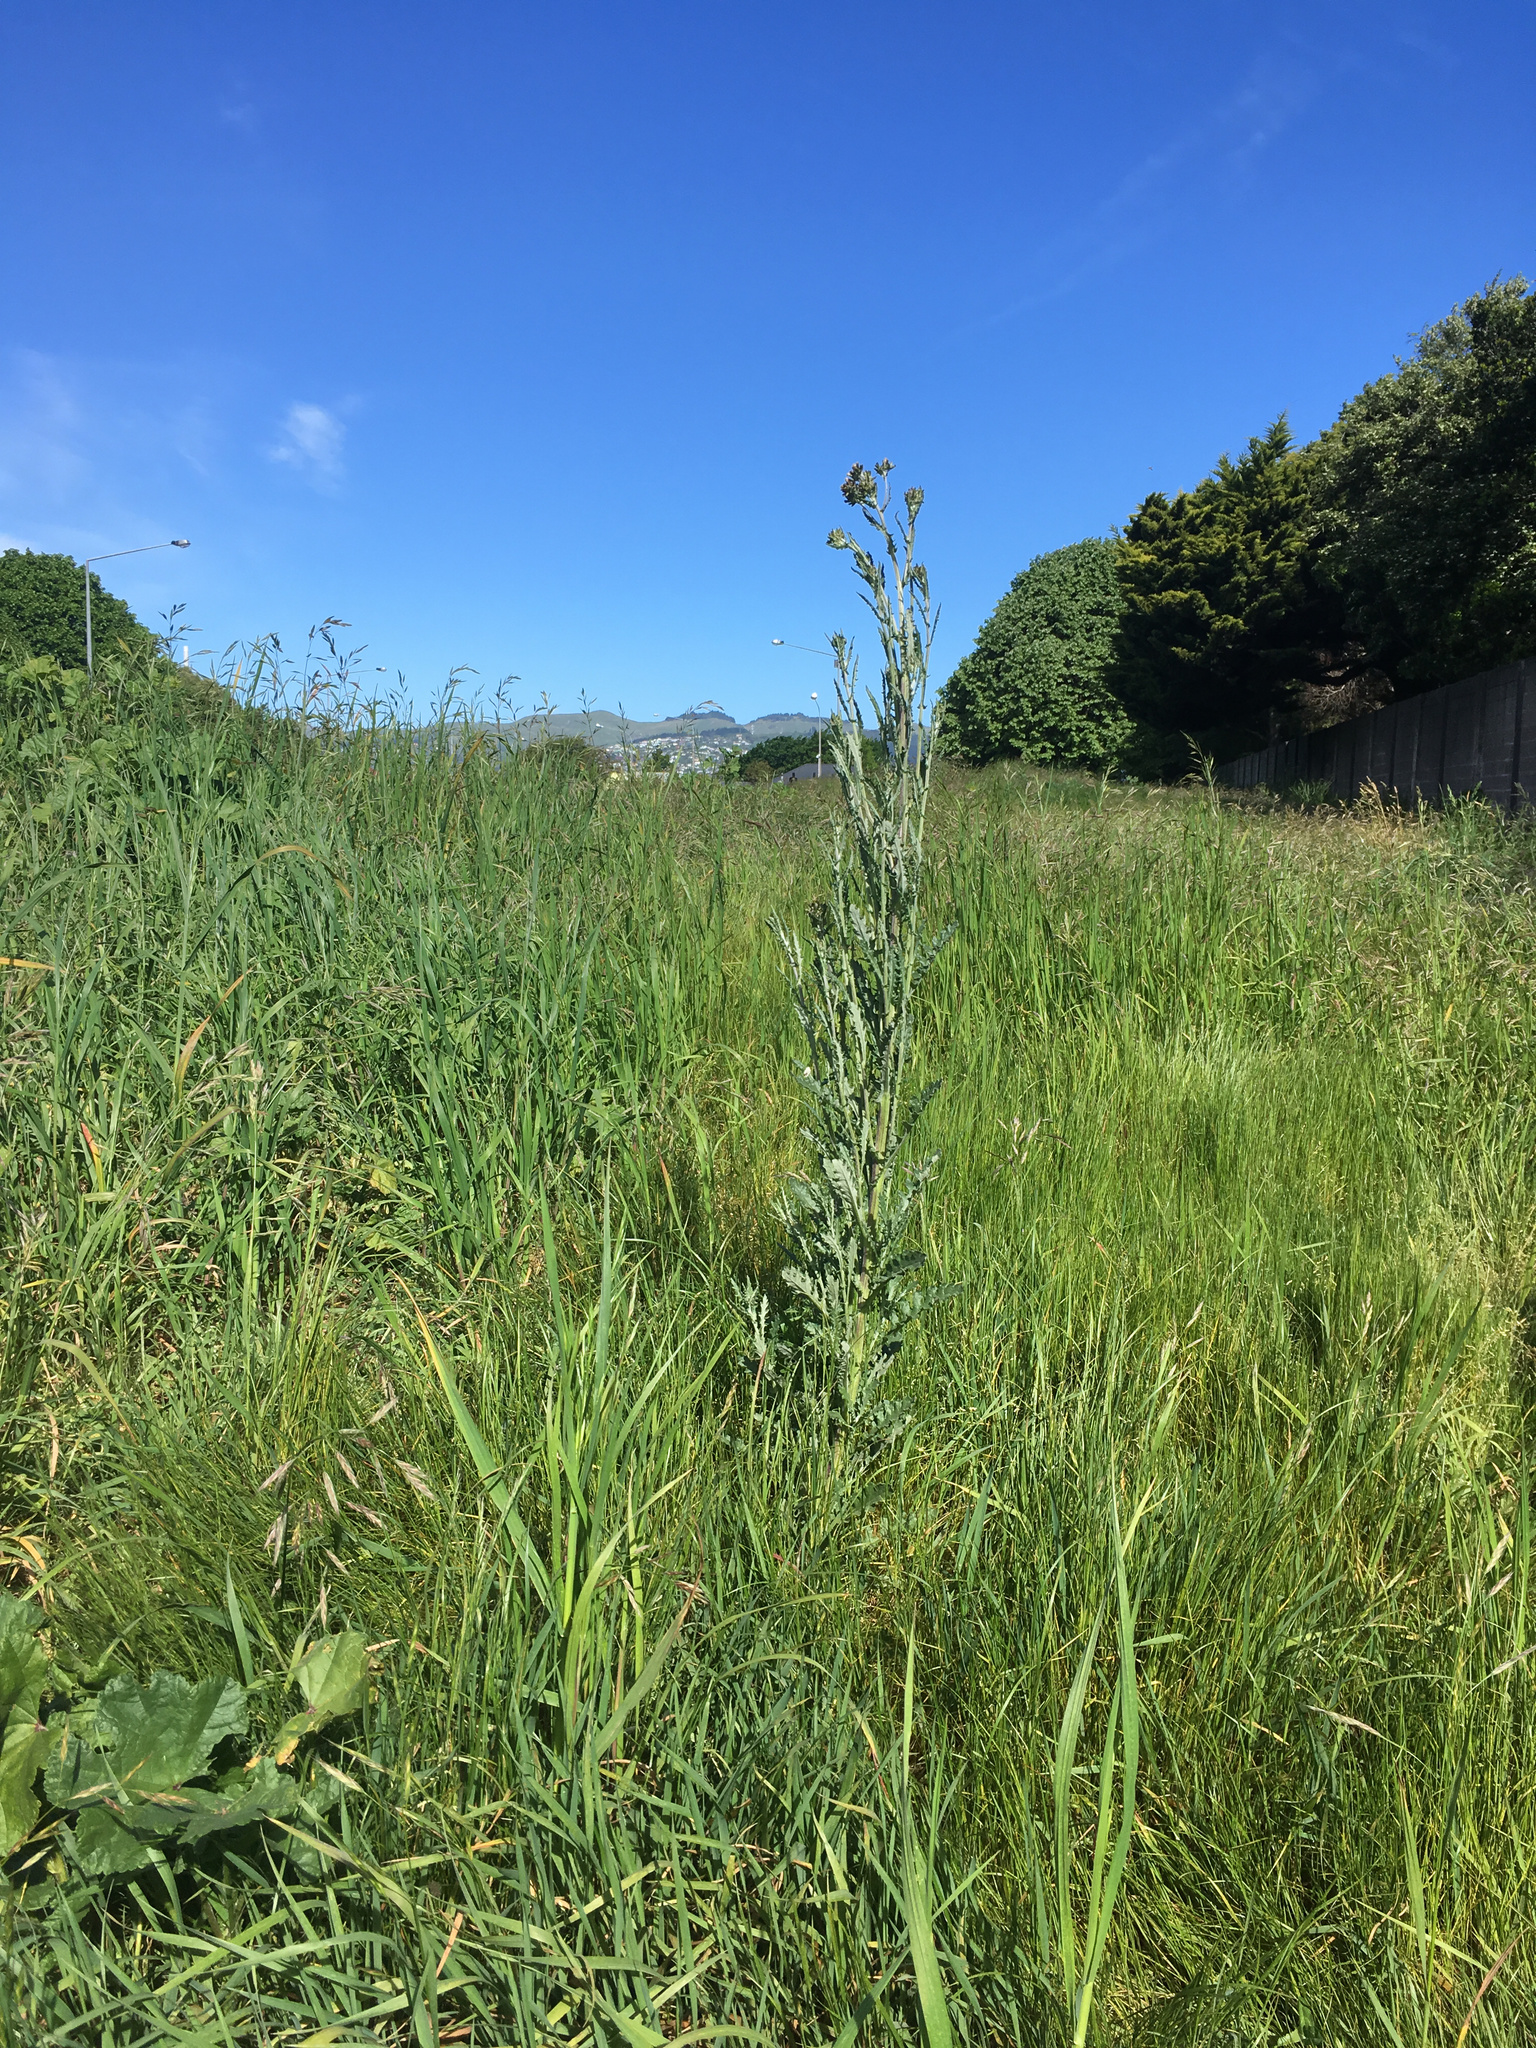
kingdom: Plantae
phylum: Tracheophyta
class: Magnoliopsida
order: Asterales
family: Asteraceae
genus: Senecio
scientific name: Senecio glomeratus
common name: Cutleaf burnweed
